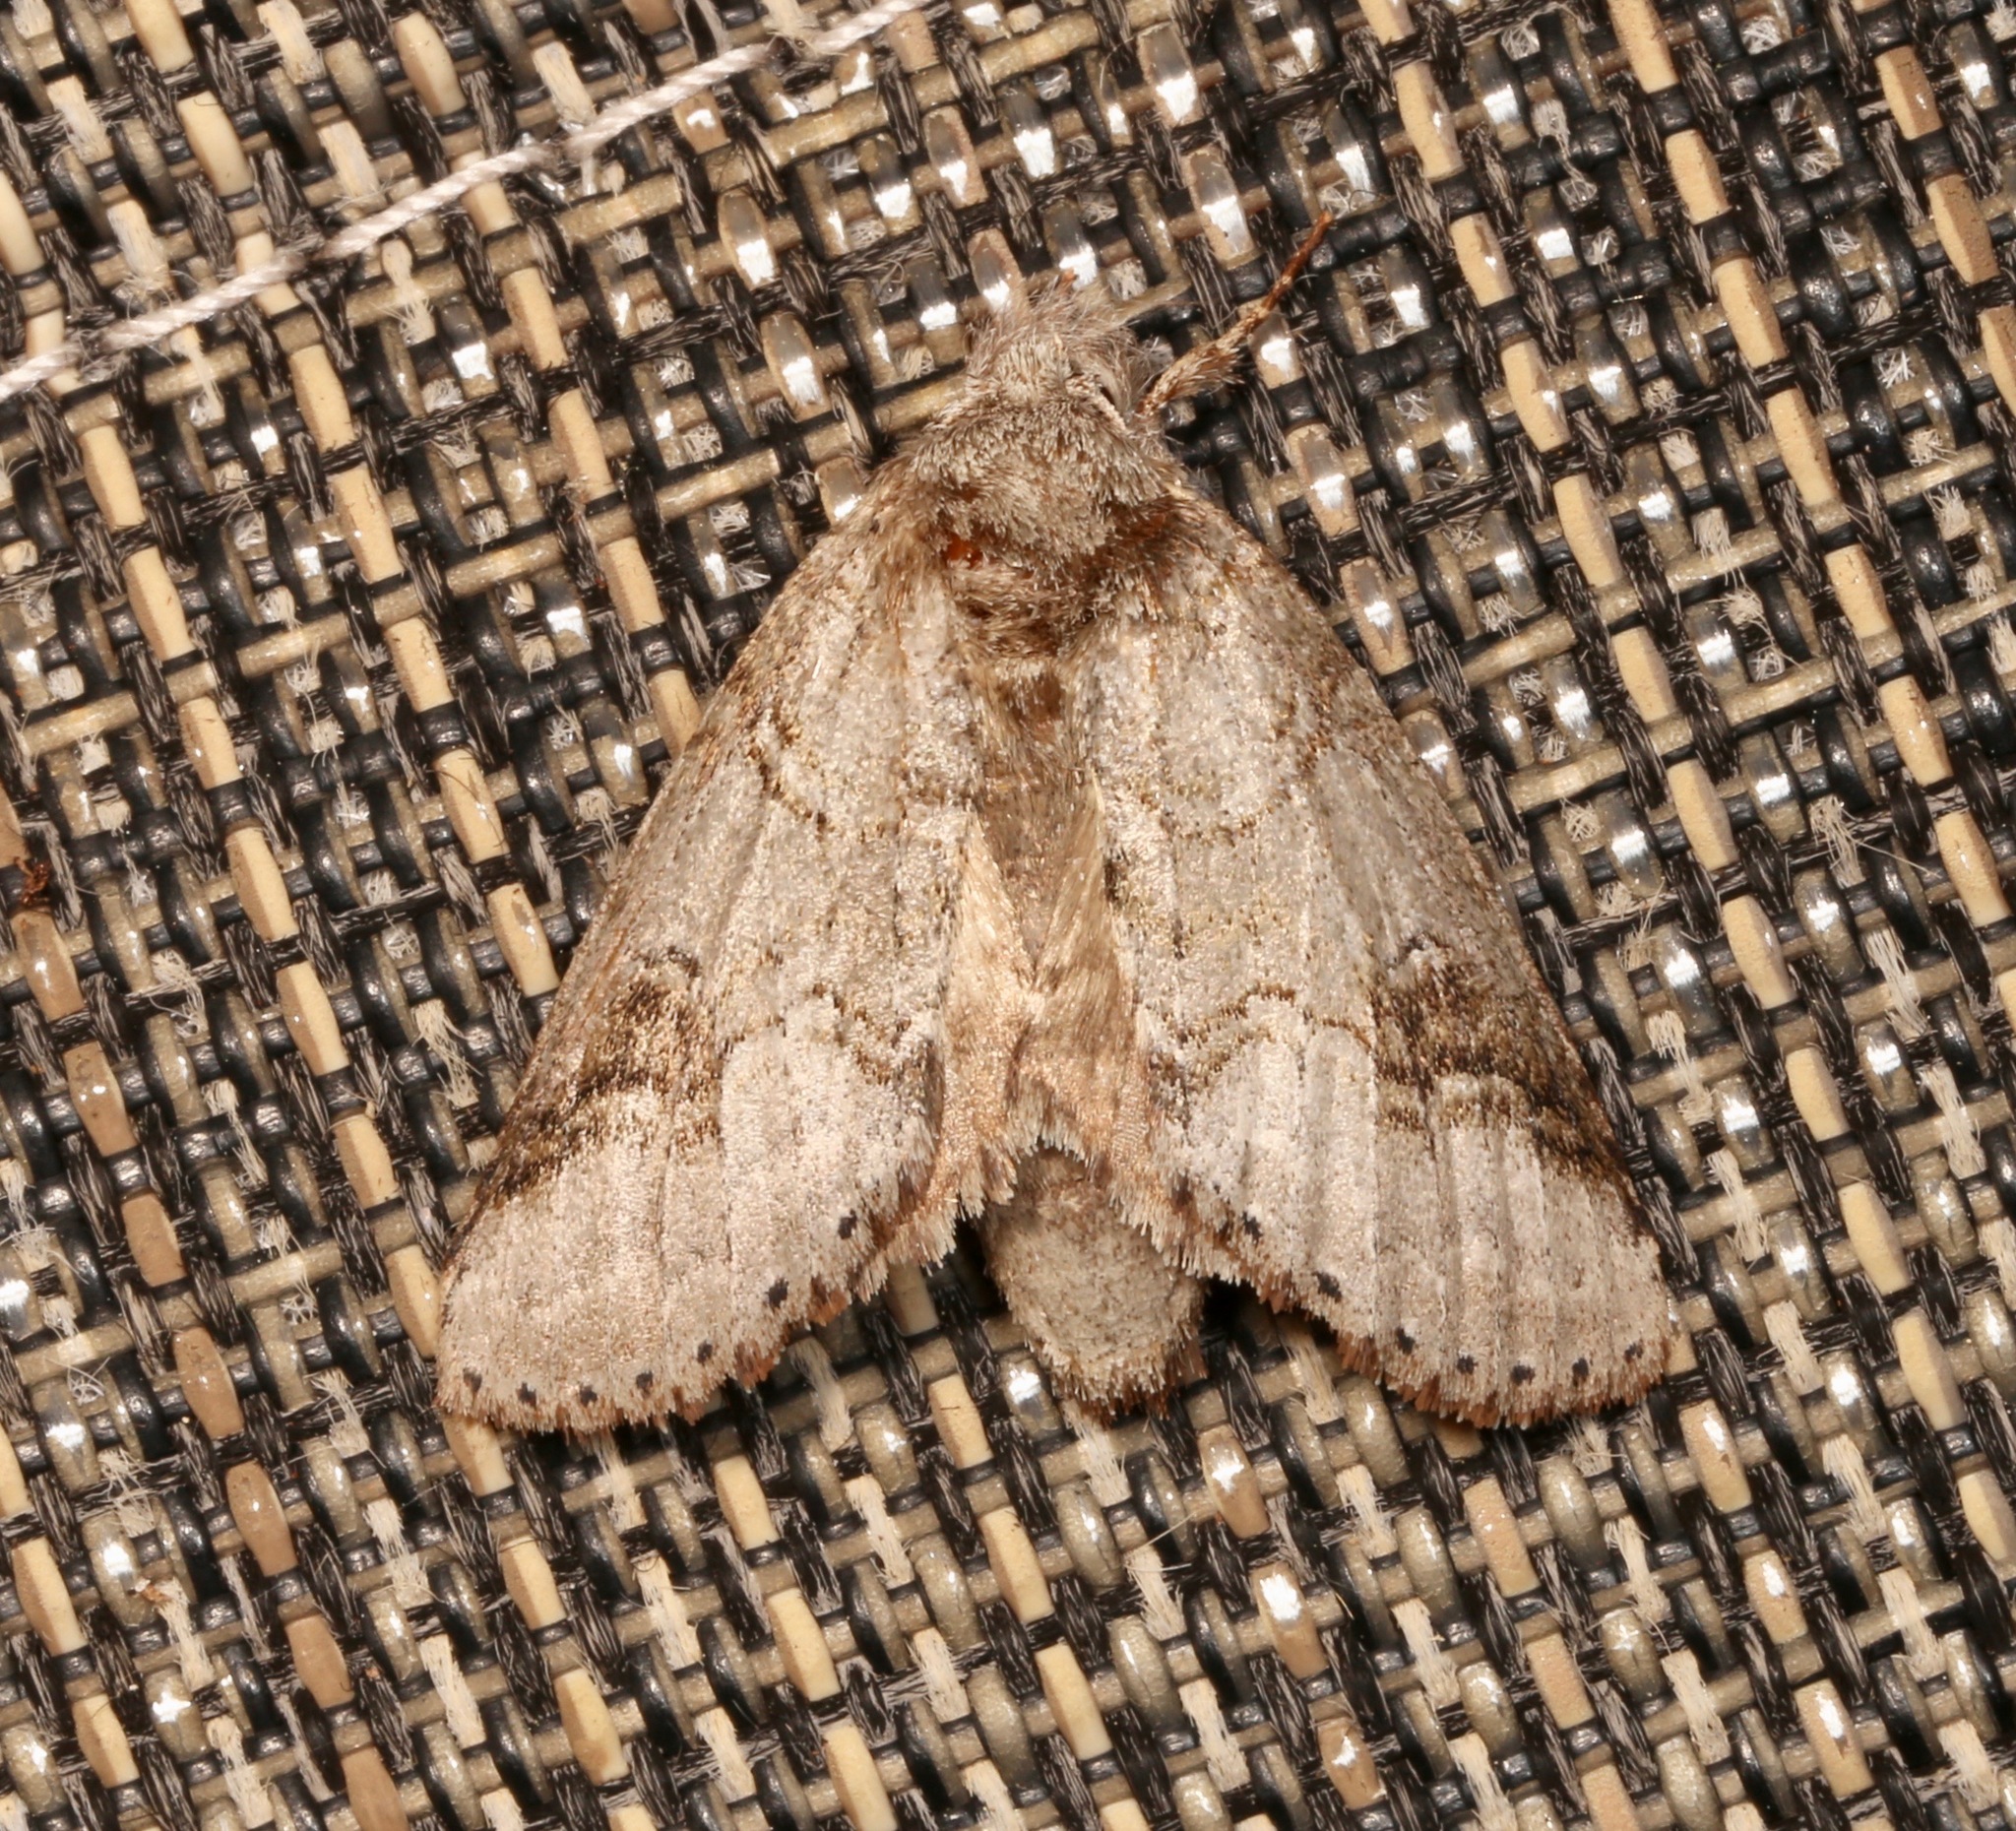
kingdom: Animalia
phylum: Arthropoda
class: Insecta
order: Lepidoptera
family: Notodontidae
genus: Lochmaeus
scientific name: Lochmaeus bilineata
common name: Double-lined prominent
